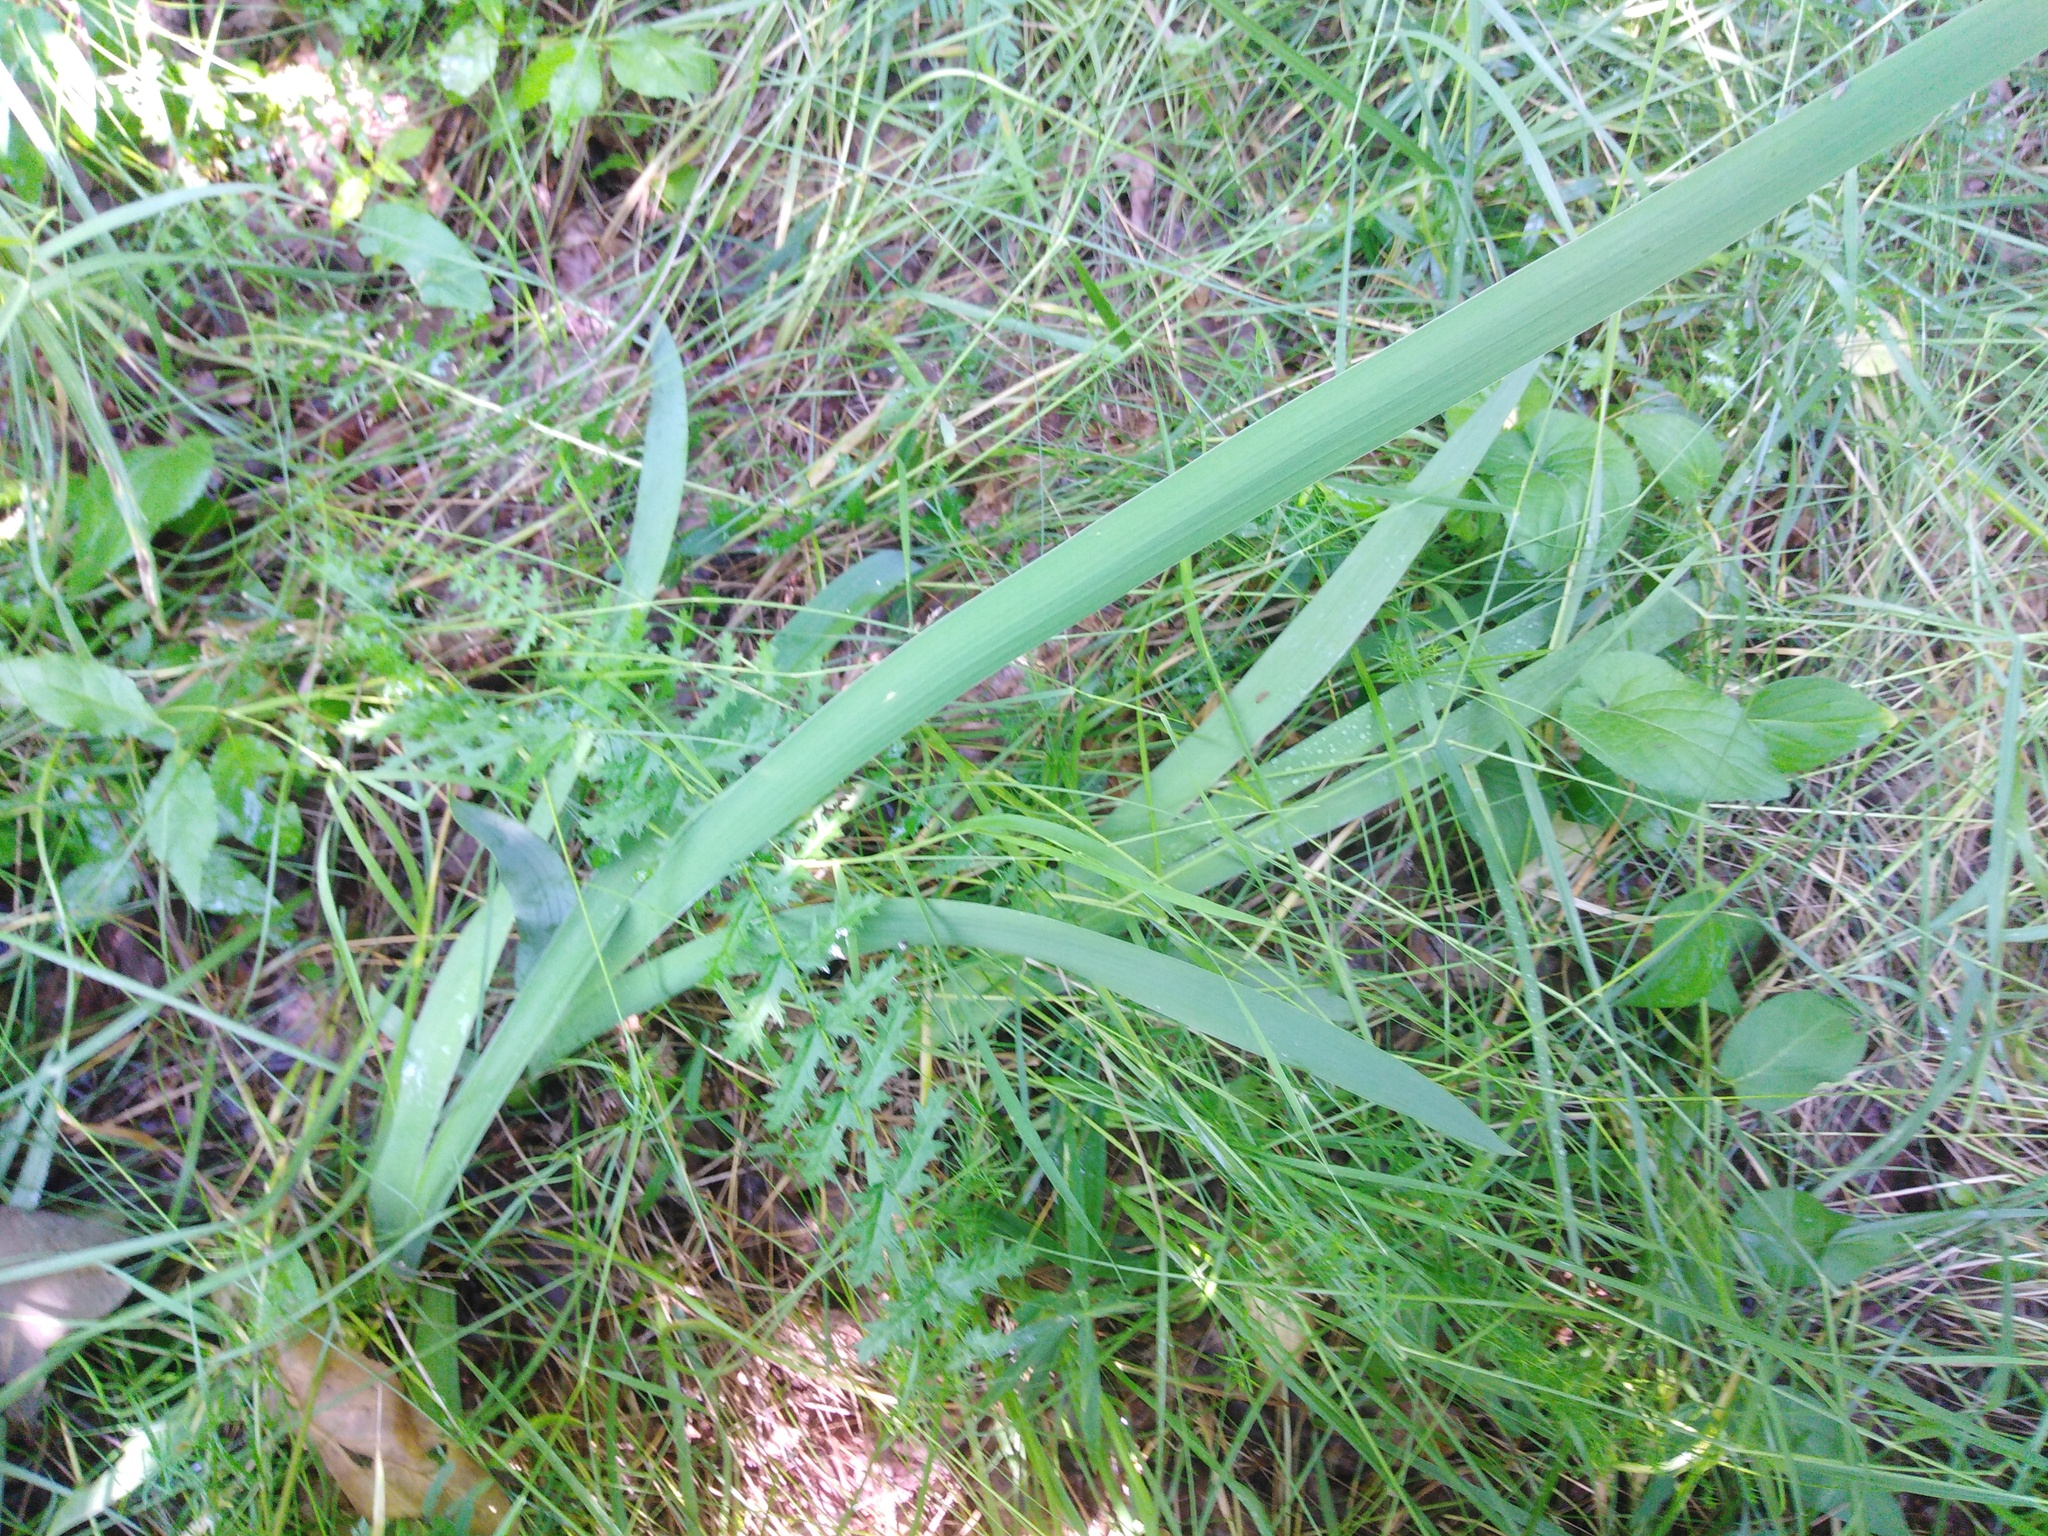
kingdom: Plantae
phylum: Tracheophyta
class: Liliopsida
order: Asparagales
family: Iridaceae
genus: Iris
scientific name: Iris aphylla
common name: Stool iris
